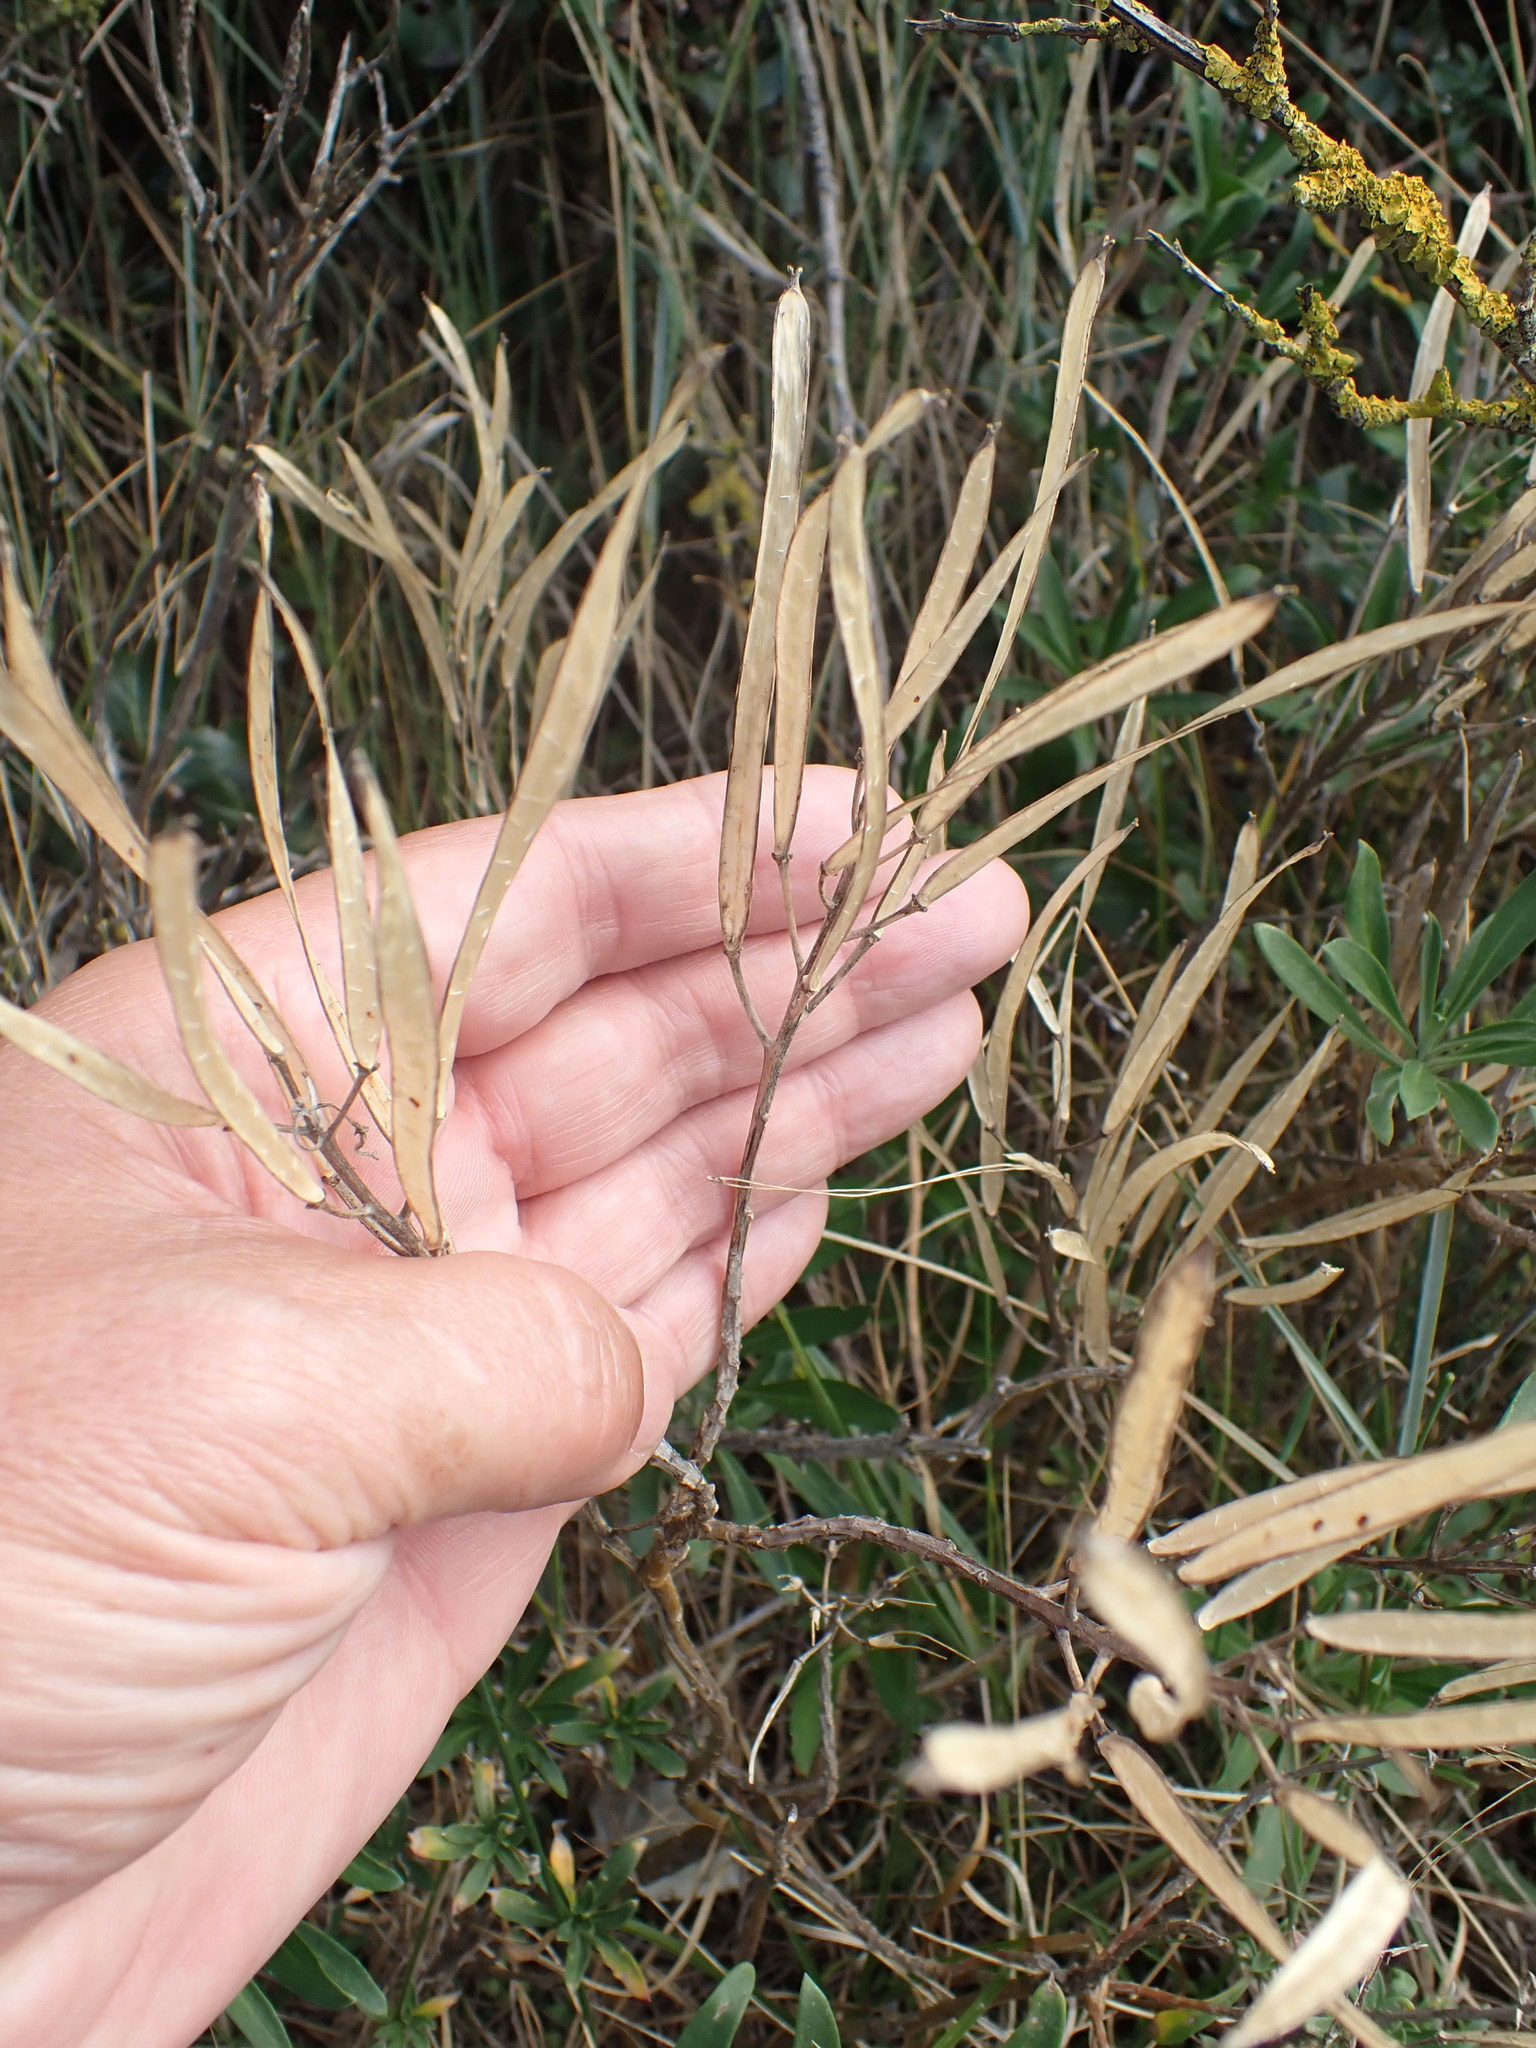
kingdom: Plantae
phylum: Tracheophyta
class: Magnoliopsida
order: Brassicales
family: Brassicaceae
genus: Erysimum
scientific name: Erysimum cheiri
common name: Wallflower
